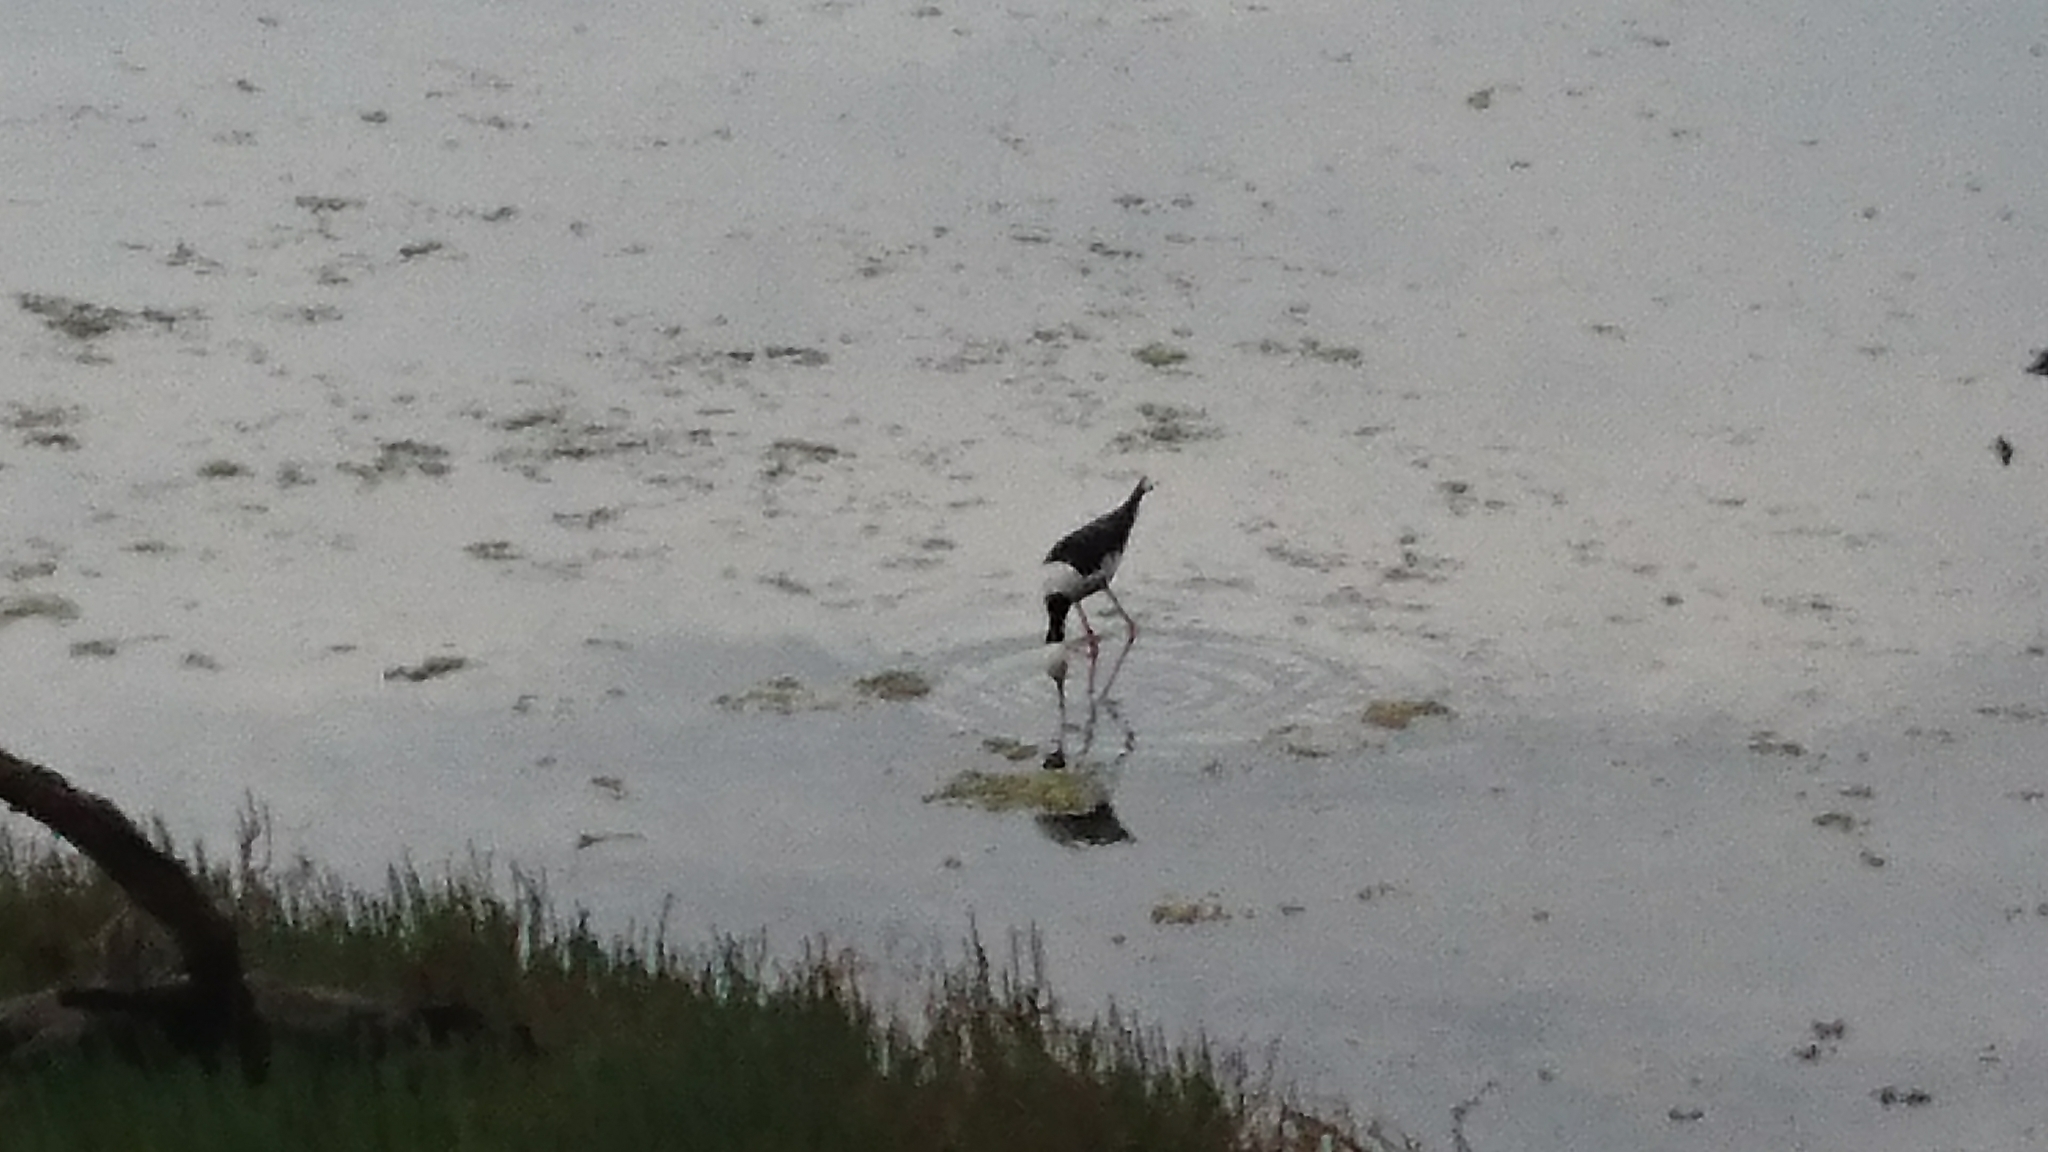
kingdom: Animalia
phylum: Chordata
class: Aves
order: Charadriiformes
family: Recurvirostridae
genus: Himantopus
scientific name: Himantopus leucocephalus
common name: White-headed stilt
